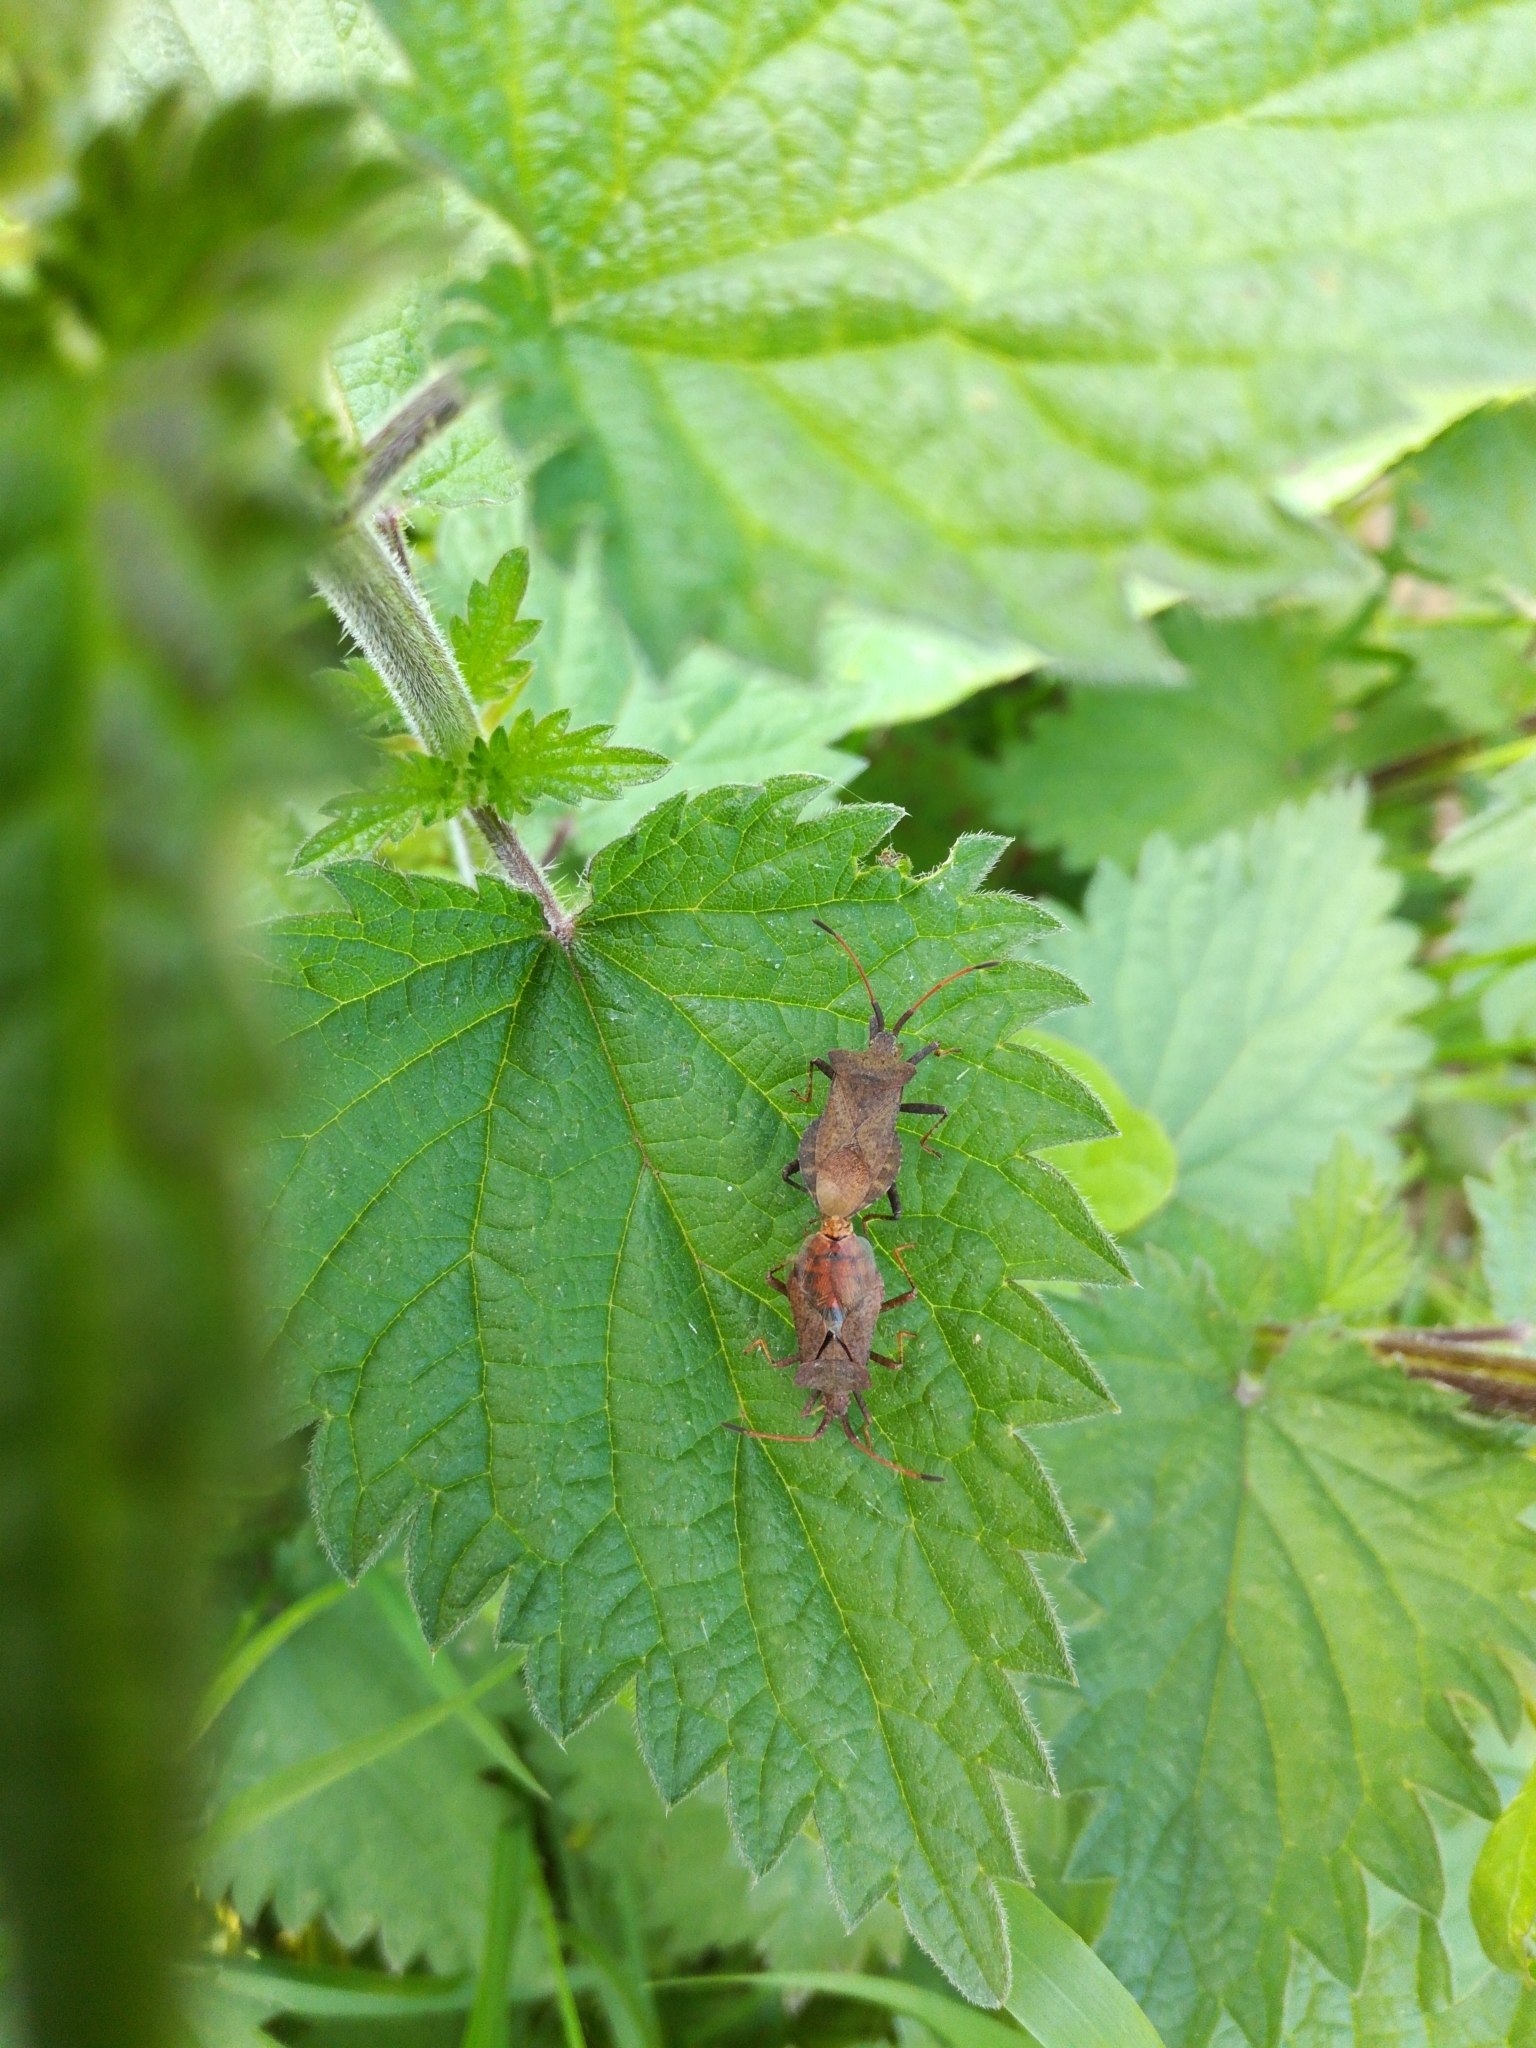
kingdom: Animalia
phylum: Arthropoda
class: Insecta
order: Hemiptera
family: Coreidae
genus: Coreus
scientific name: Coreus marginatus
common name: Dock bug
